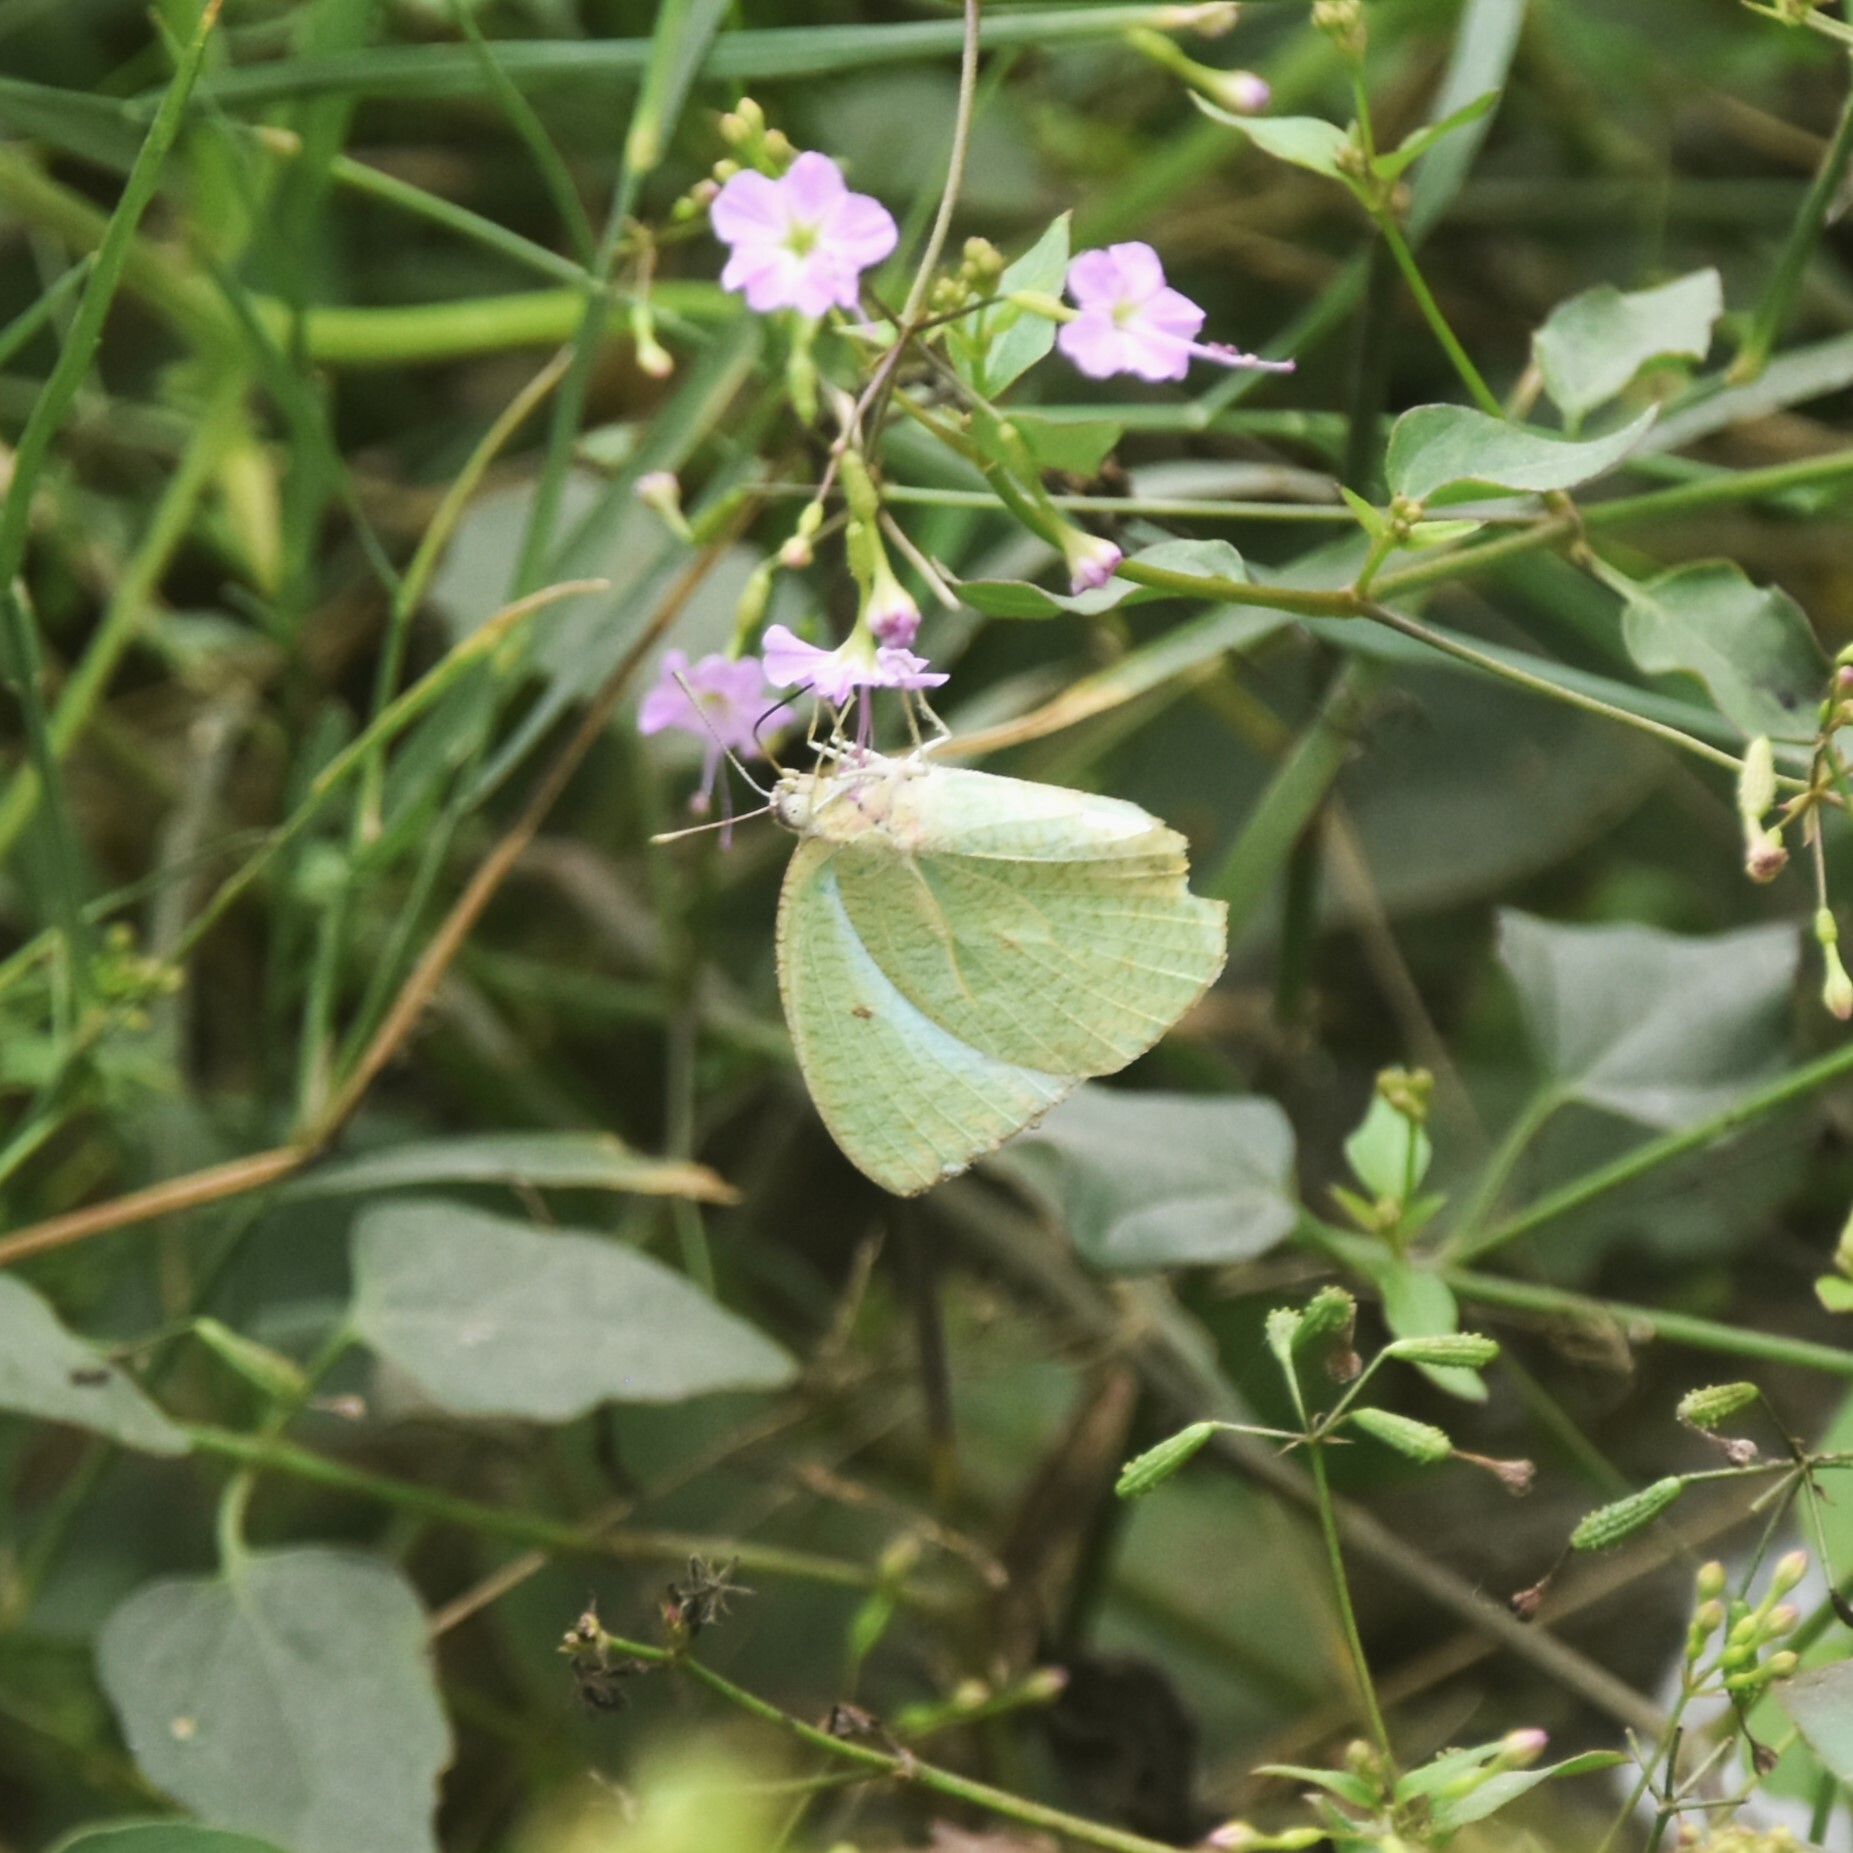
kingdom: Animalia
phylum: Arthropoda
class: Insecta
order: Lepidoptera
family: Pieridae
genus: Catopsilia
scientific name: Catopsilia pyranthe
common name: Mottled emigrant
